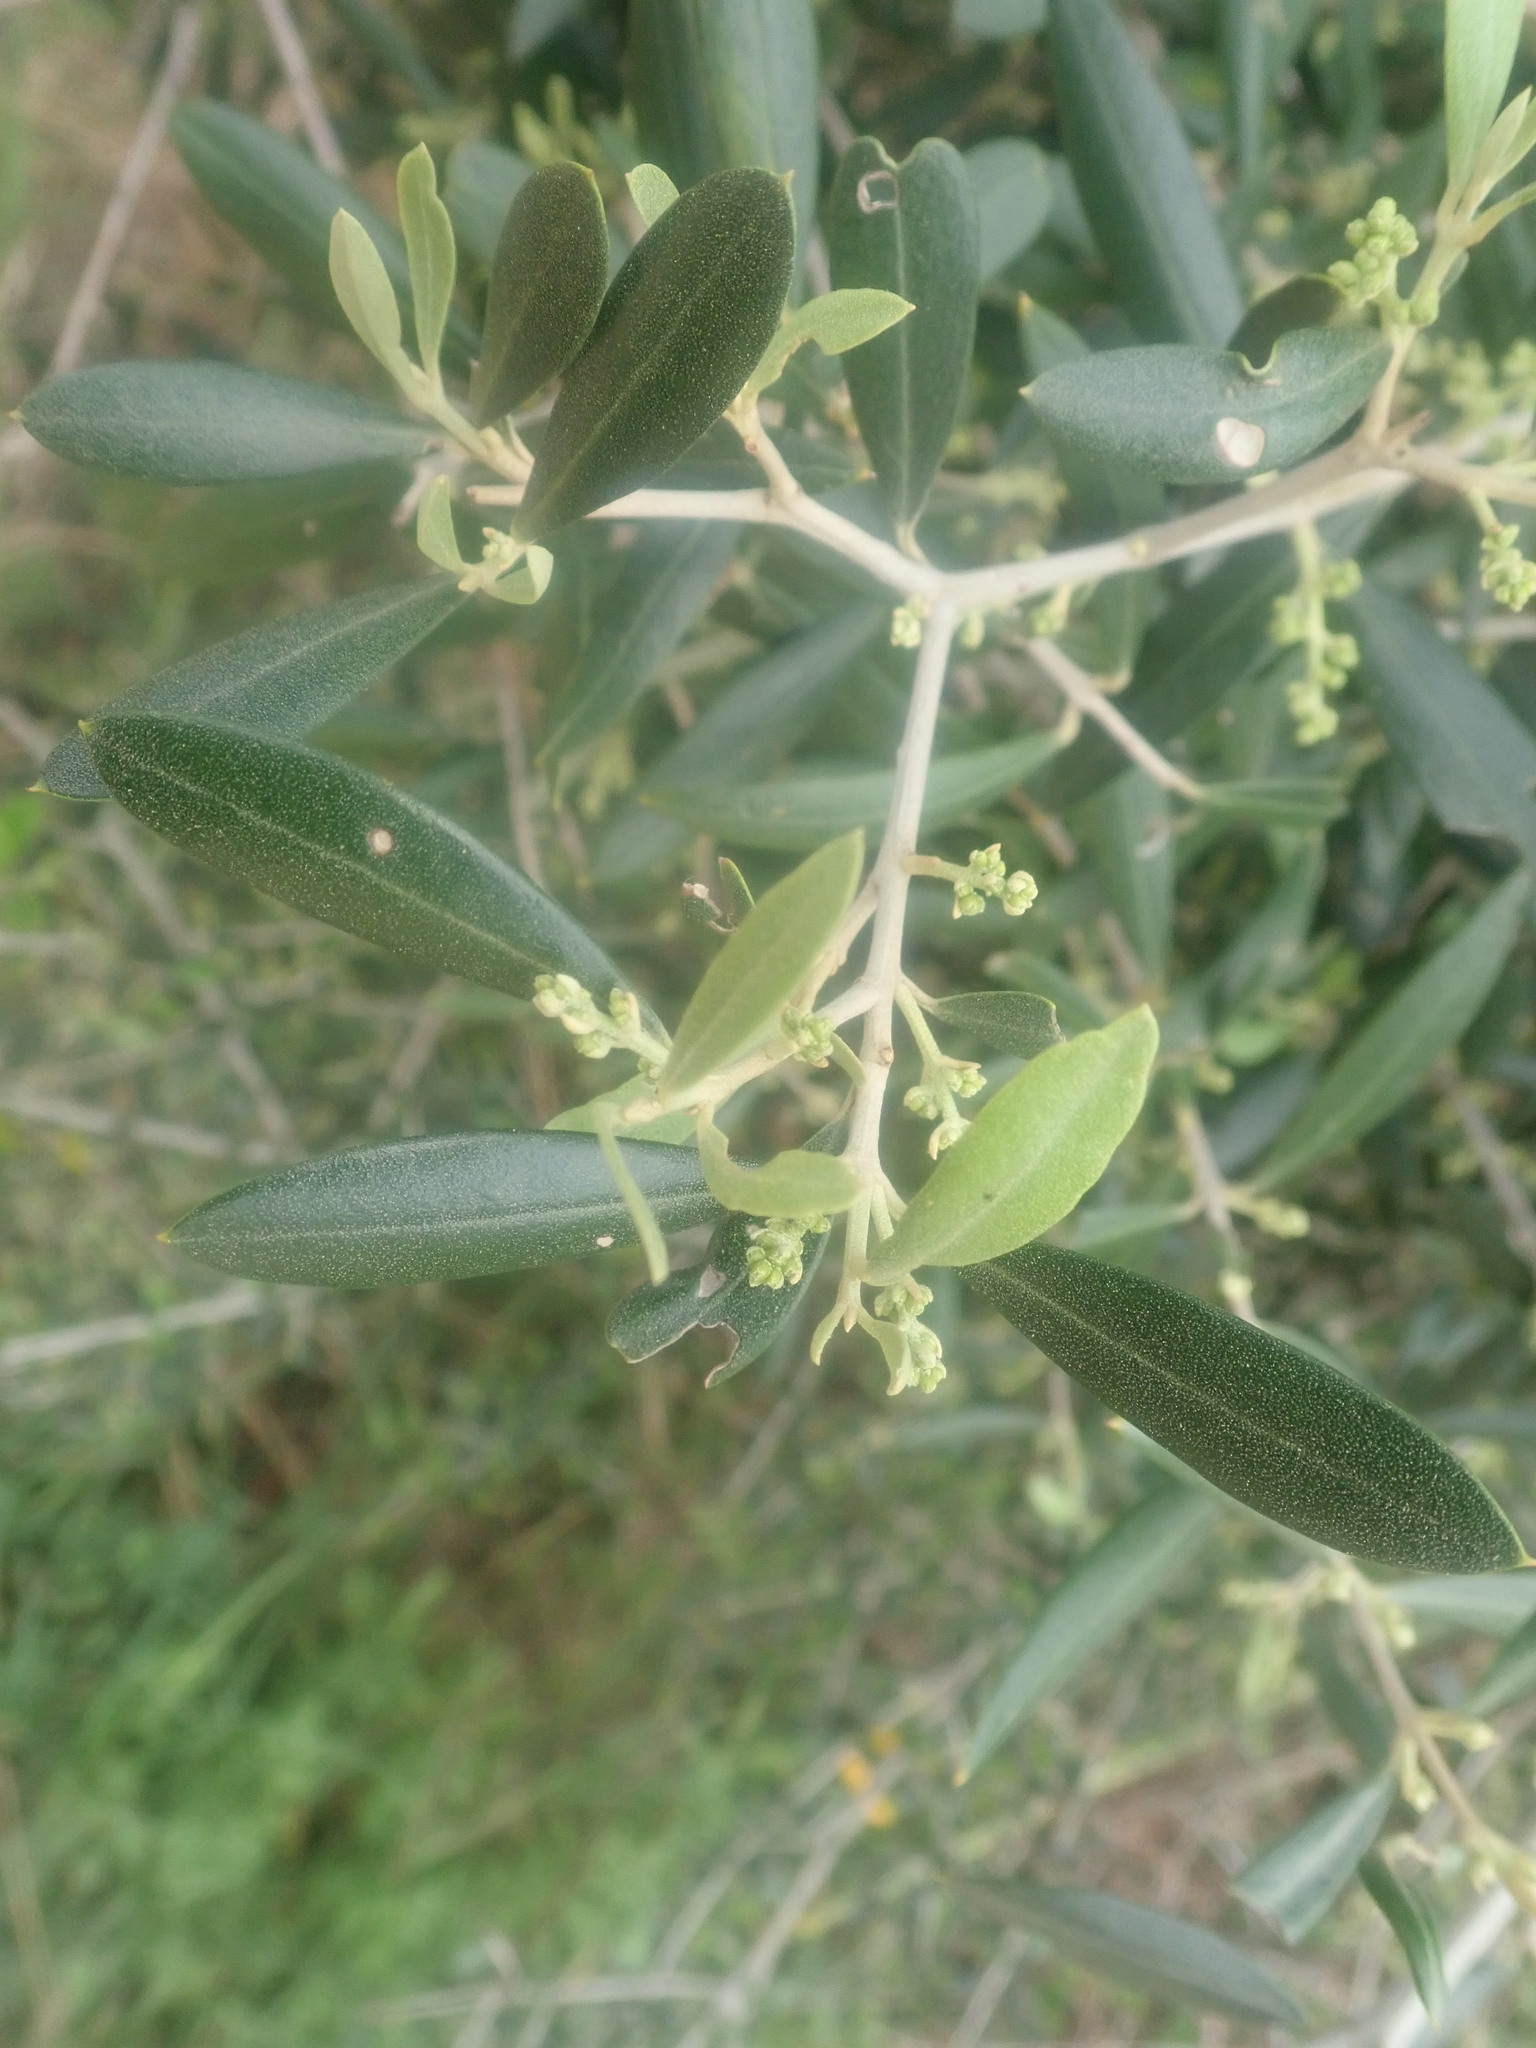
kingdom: Plantae
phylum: Tracheophyta
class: Magnoliopsida
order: Lamiales
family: Oleaceae
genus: Olea
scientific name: Olea europaea
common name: Olive
